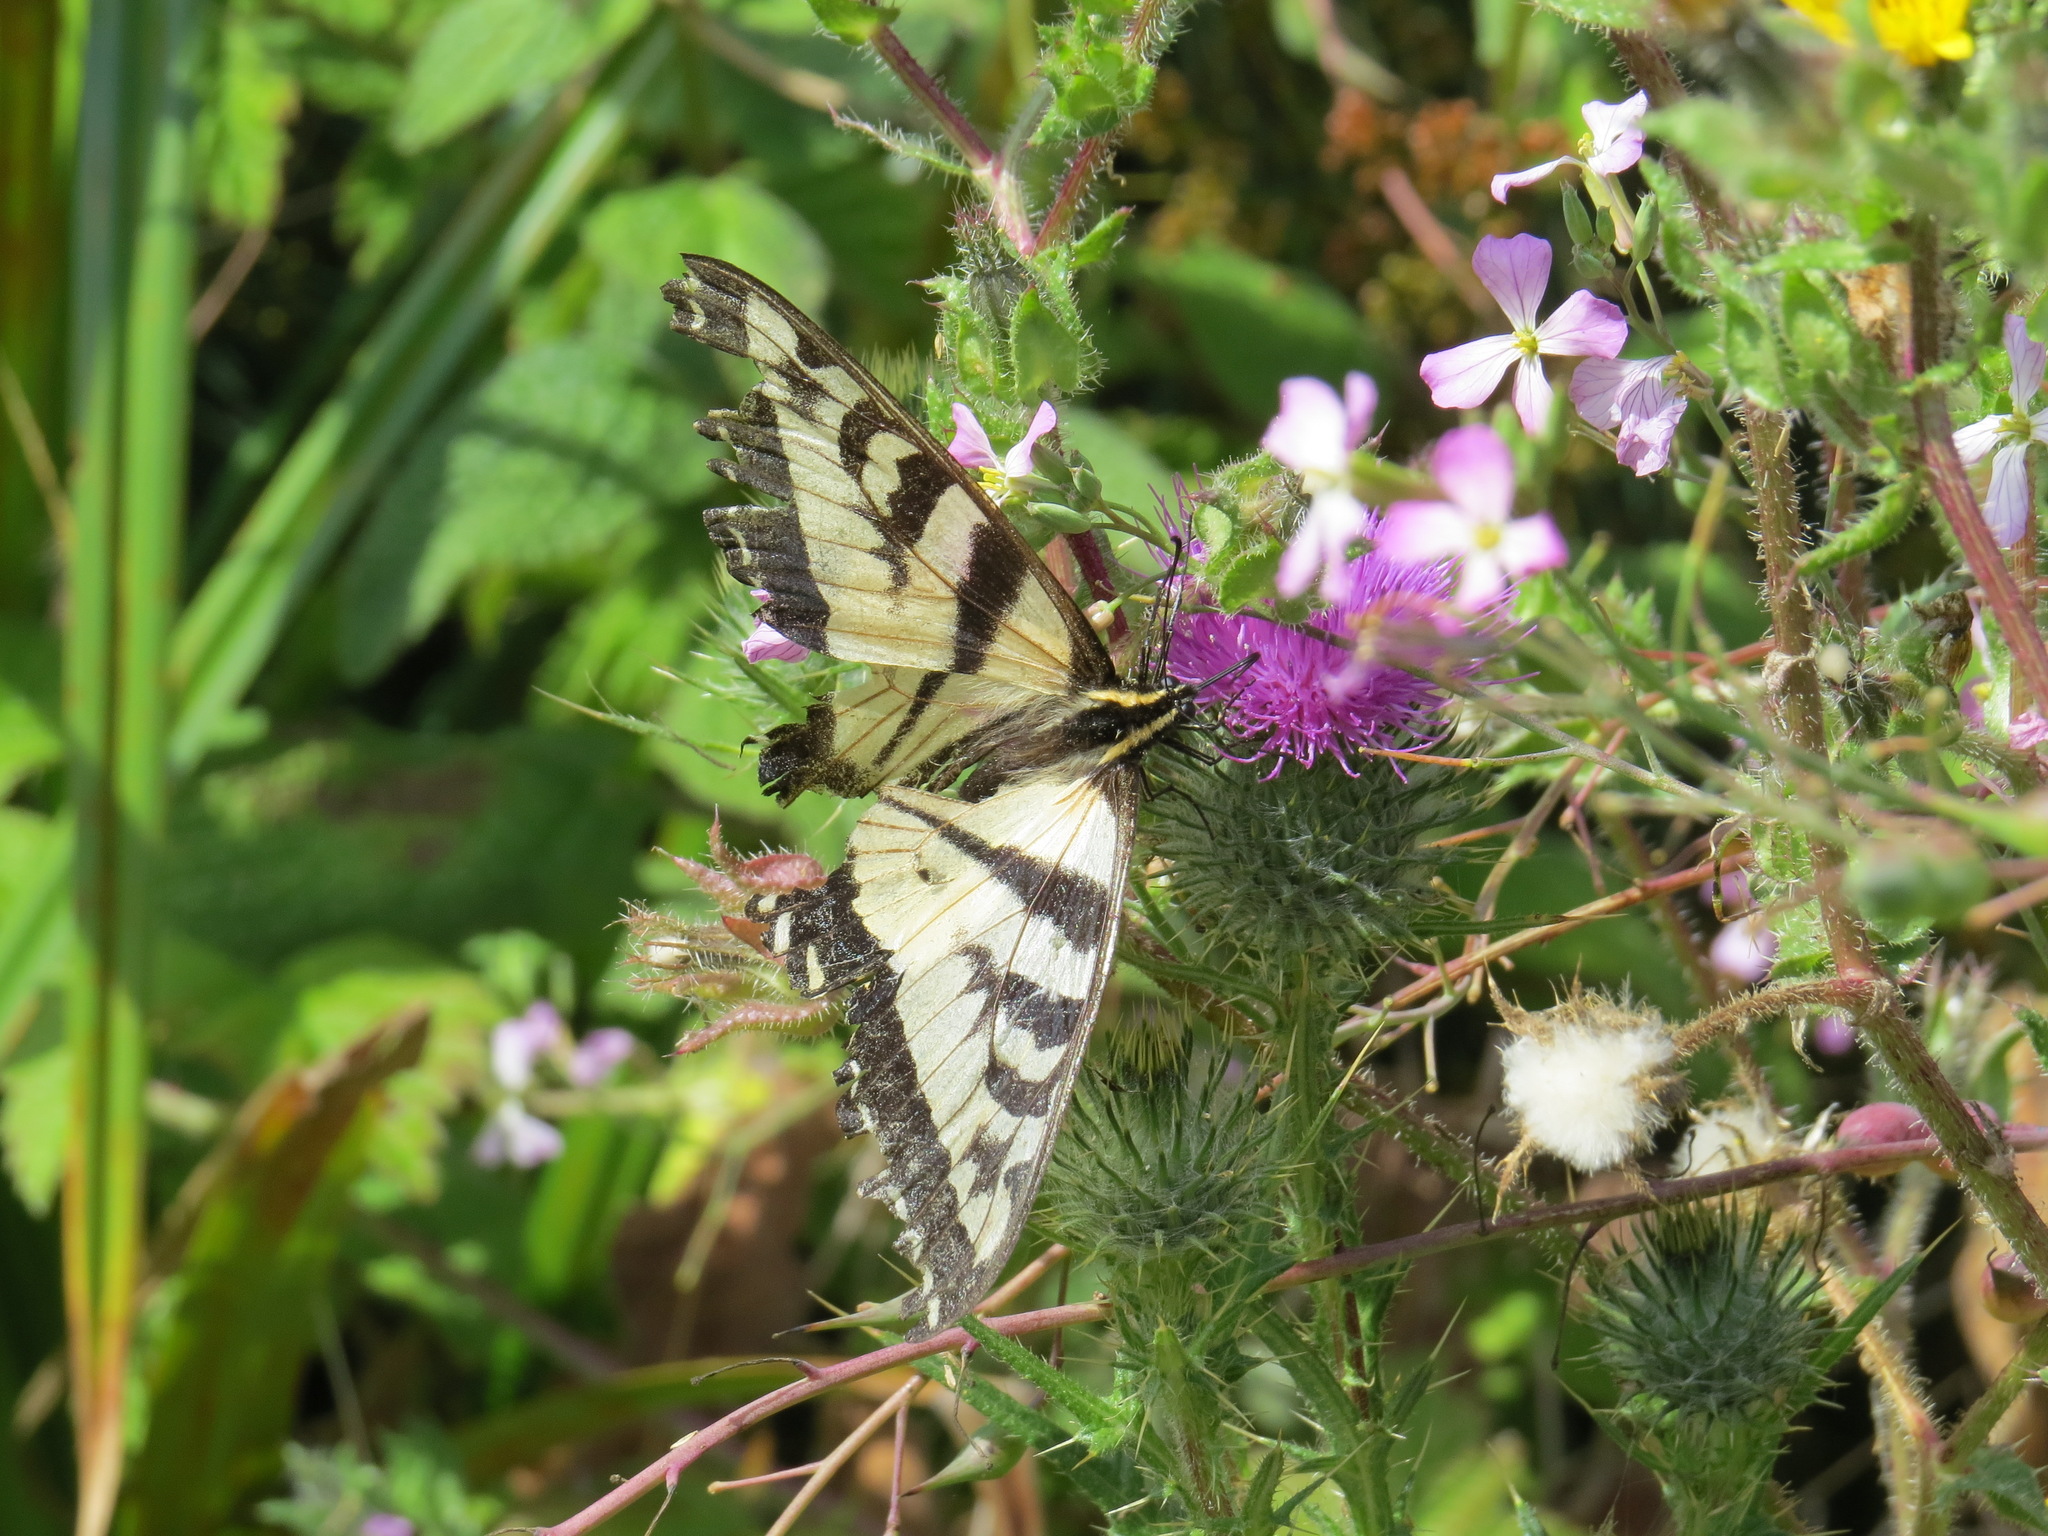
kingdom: Animalia
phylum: Arthropoda
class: Insecta
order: Lepidoptera
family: Papilionidae
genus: Papilio
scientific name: Papilio rutulus
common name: Western tiger swallowtail
